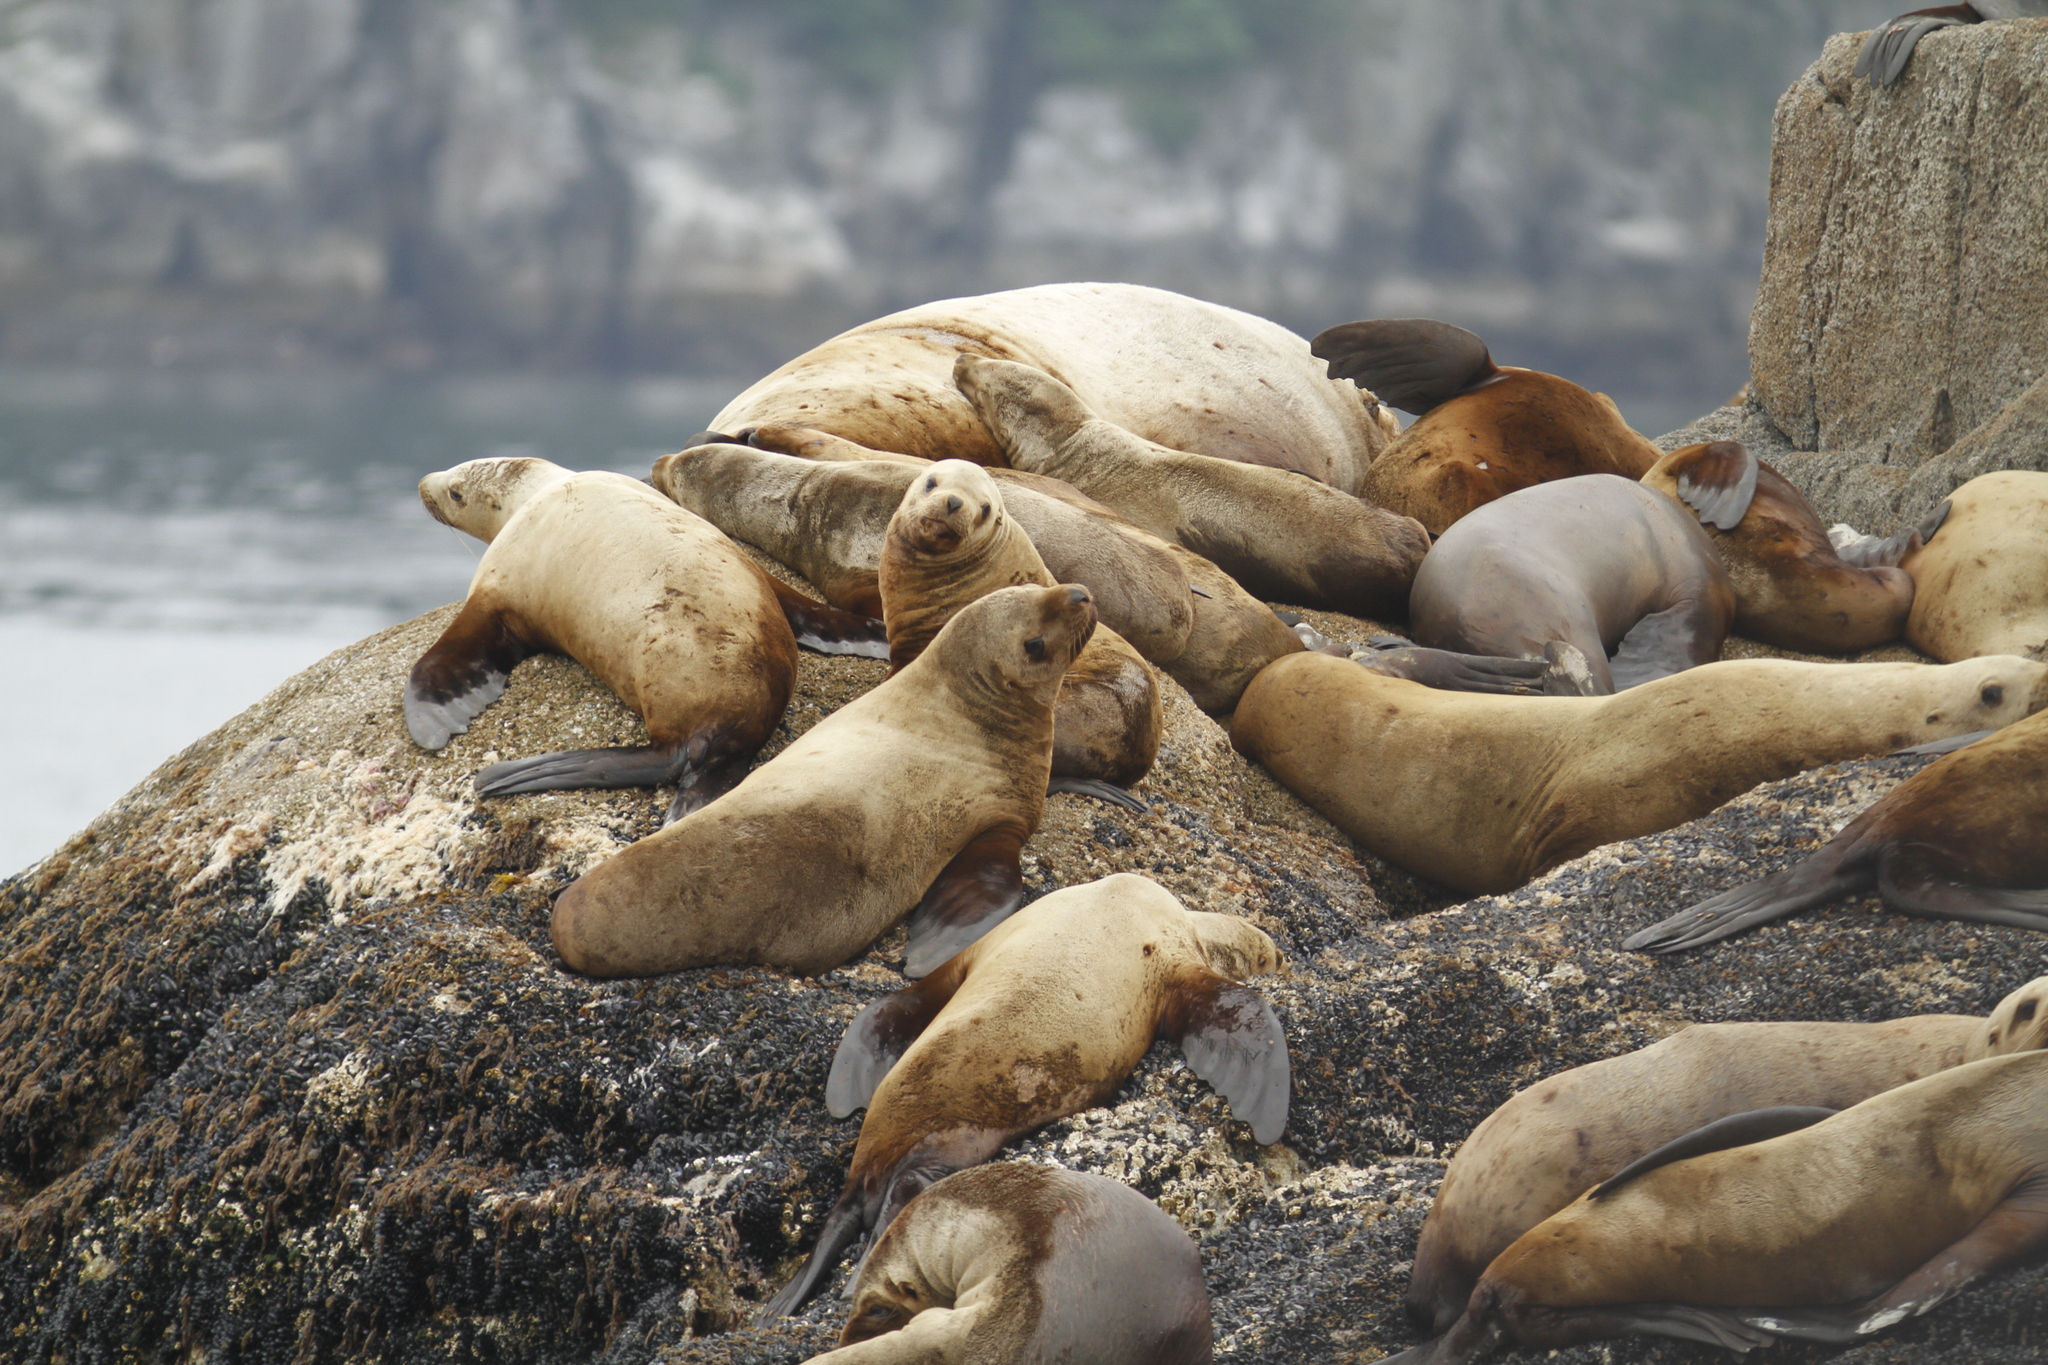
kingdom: Animalia
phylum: Chordata
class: Mammalia
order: Carnivora
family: Otariidae
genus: Eumetopias
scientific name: Eumetopias jubatus
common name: Steller sea lion
